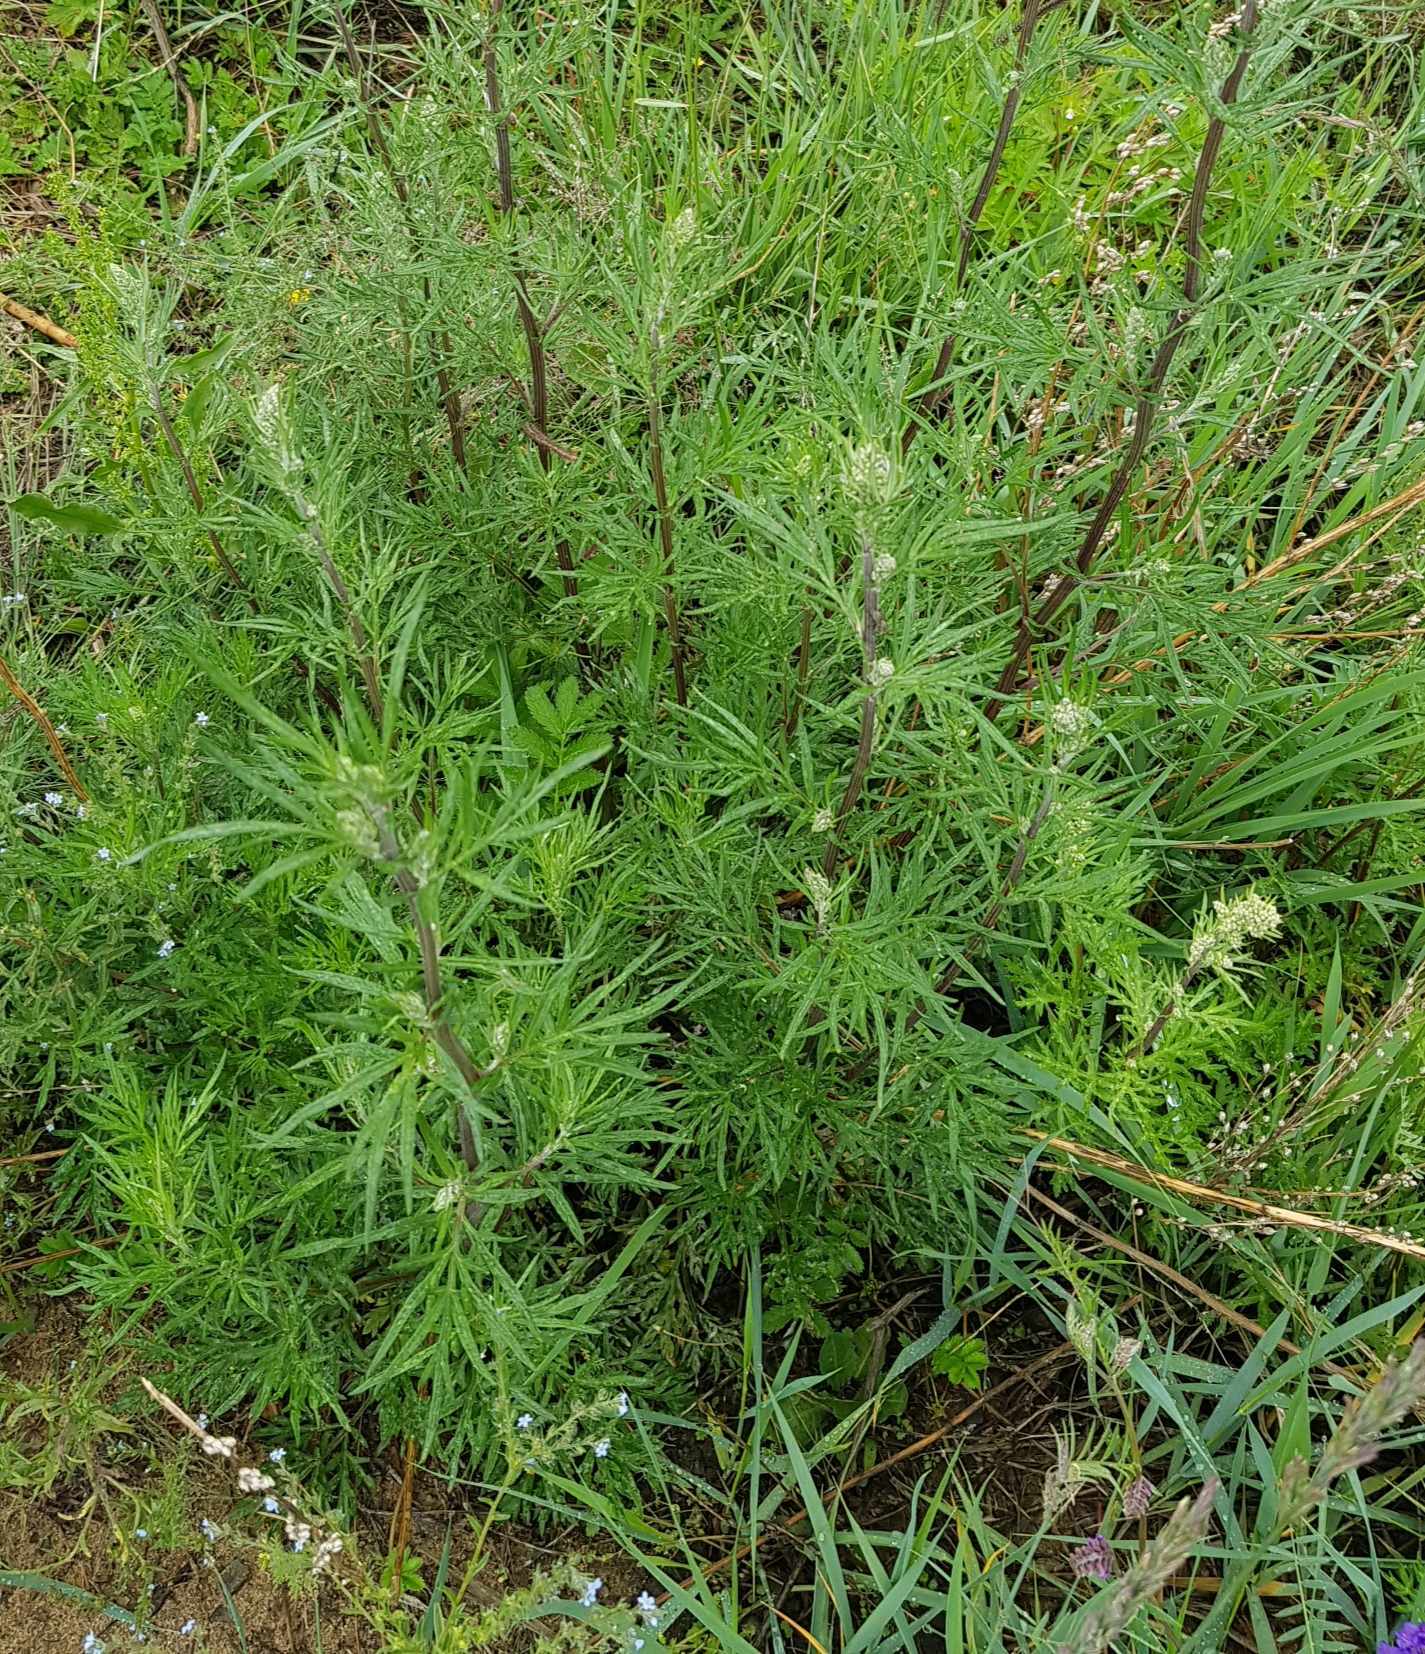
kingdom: Plantae
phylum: Tracheophyta
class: Magnoliopsida
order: Asterales
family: Asteraceae
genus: Artemisia
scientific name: Artemisia vulgaris
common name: Mugwort
